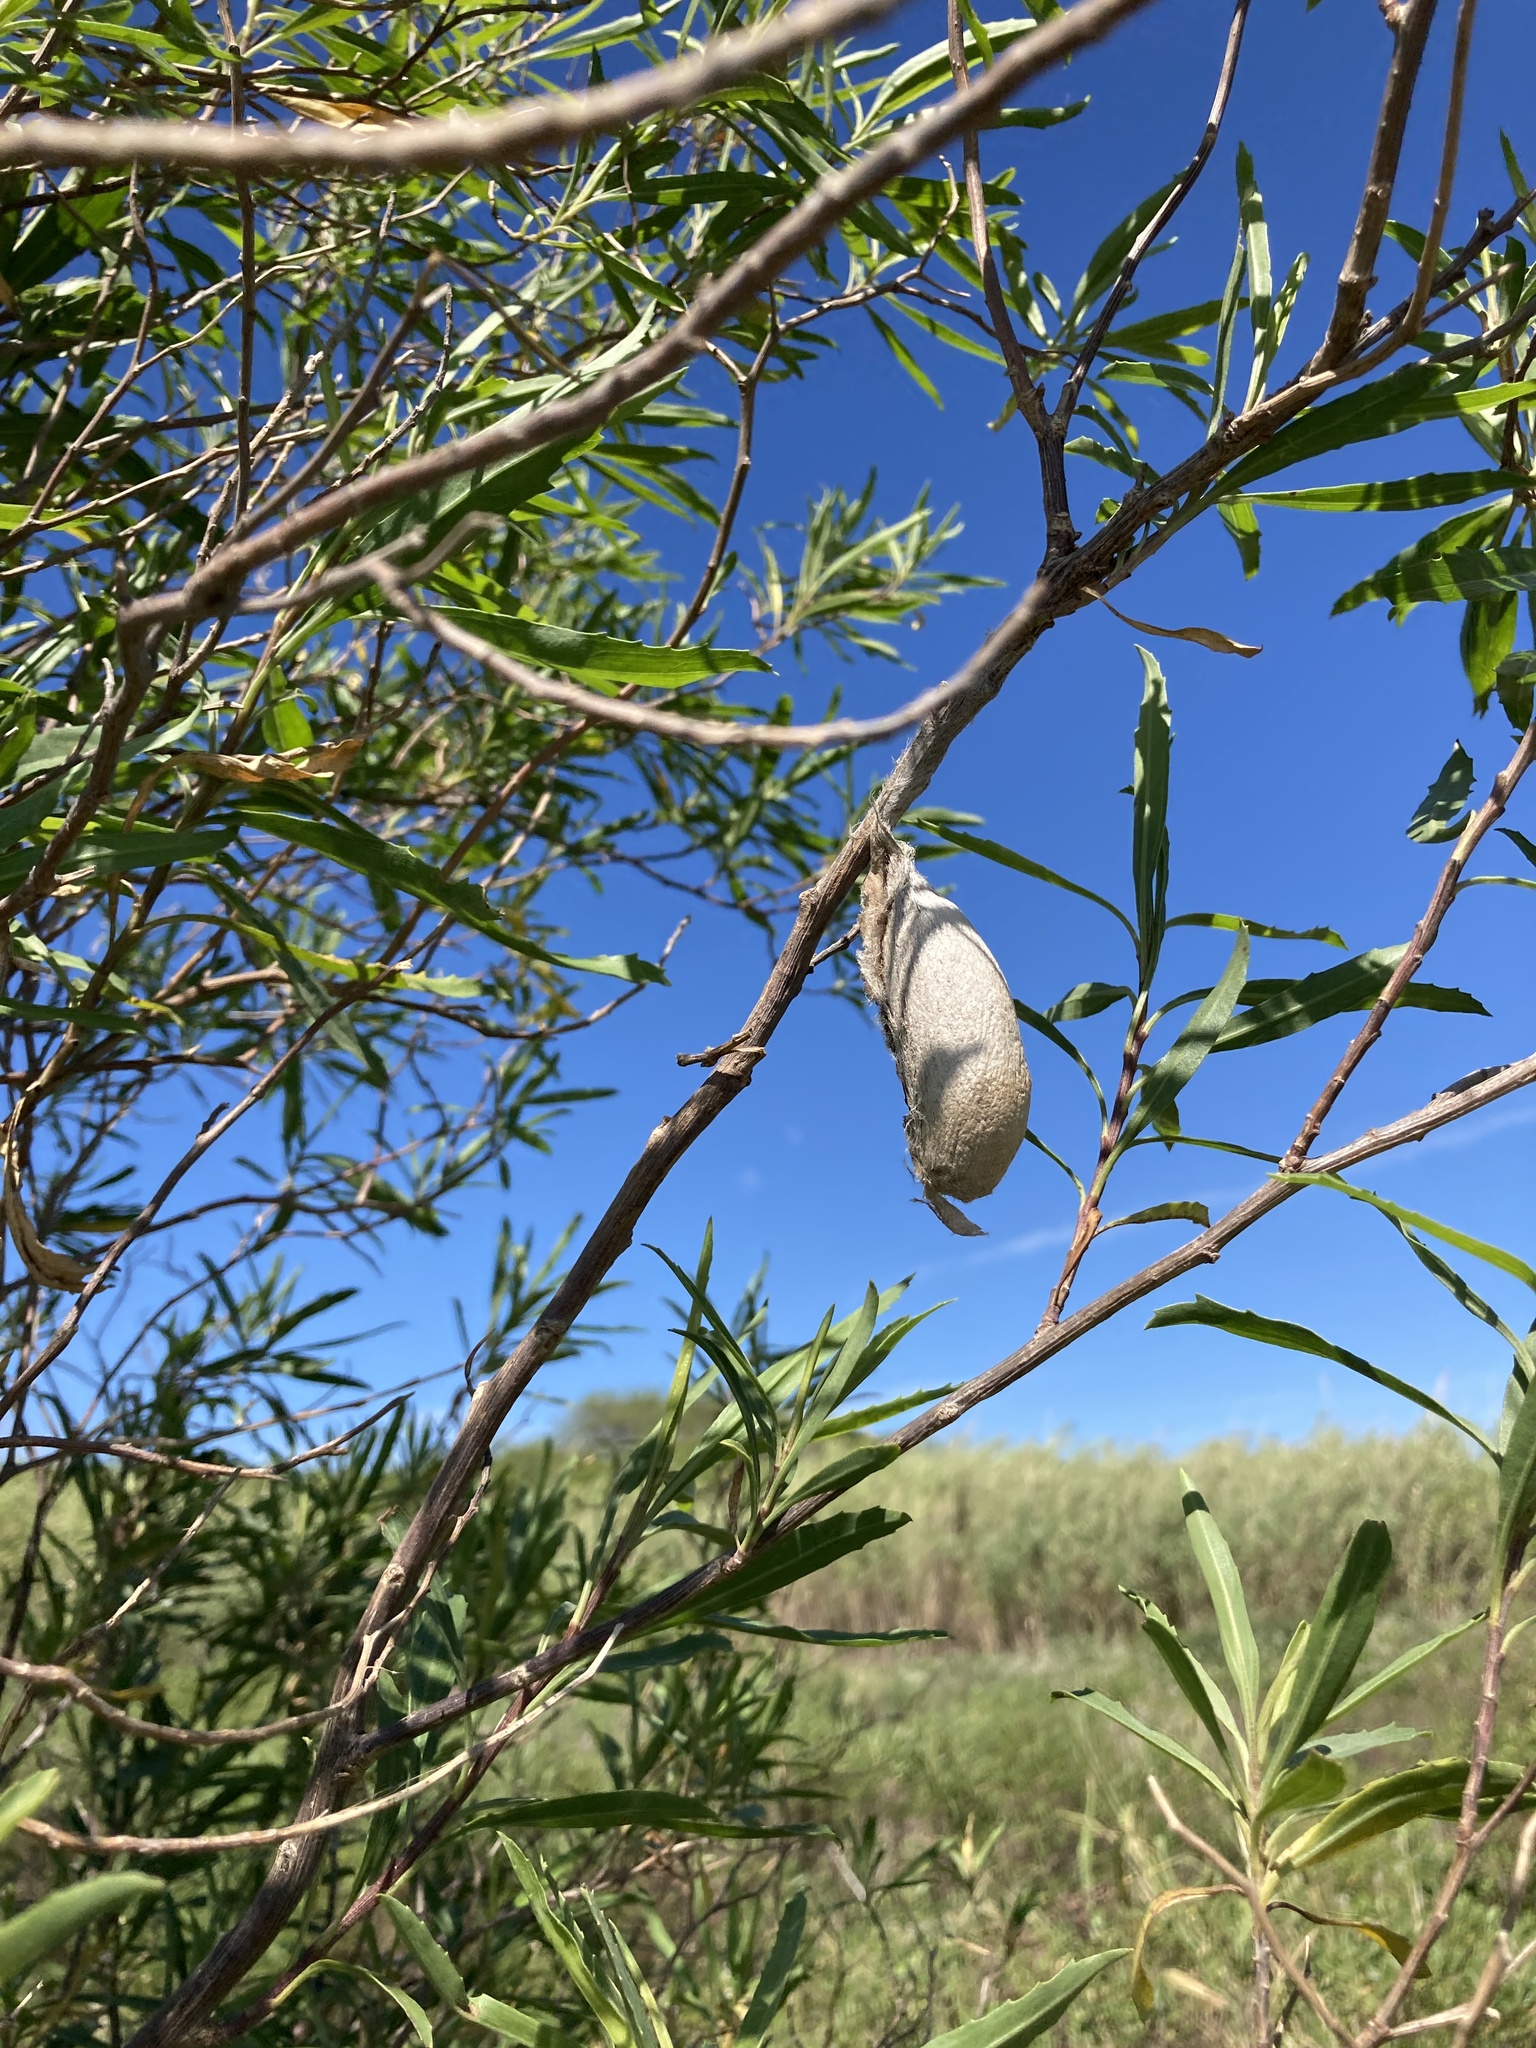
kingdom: Animalia
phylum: Arthropoda
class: Insecta
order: Lepidoptera
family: Saturniidae
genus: Rothschildia
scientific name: Rothschildia jacobaeae
